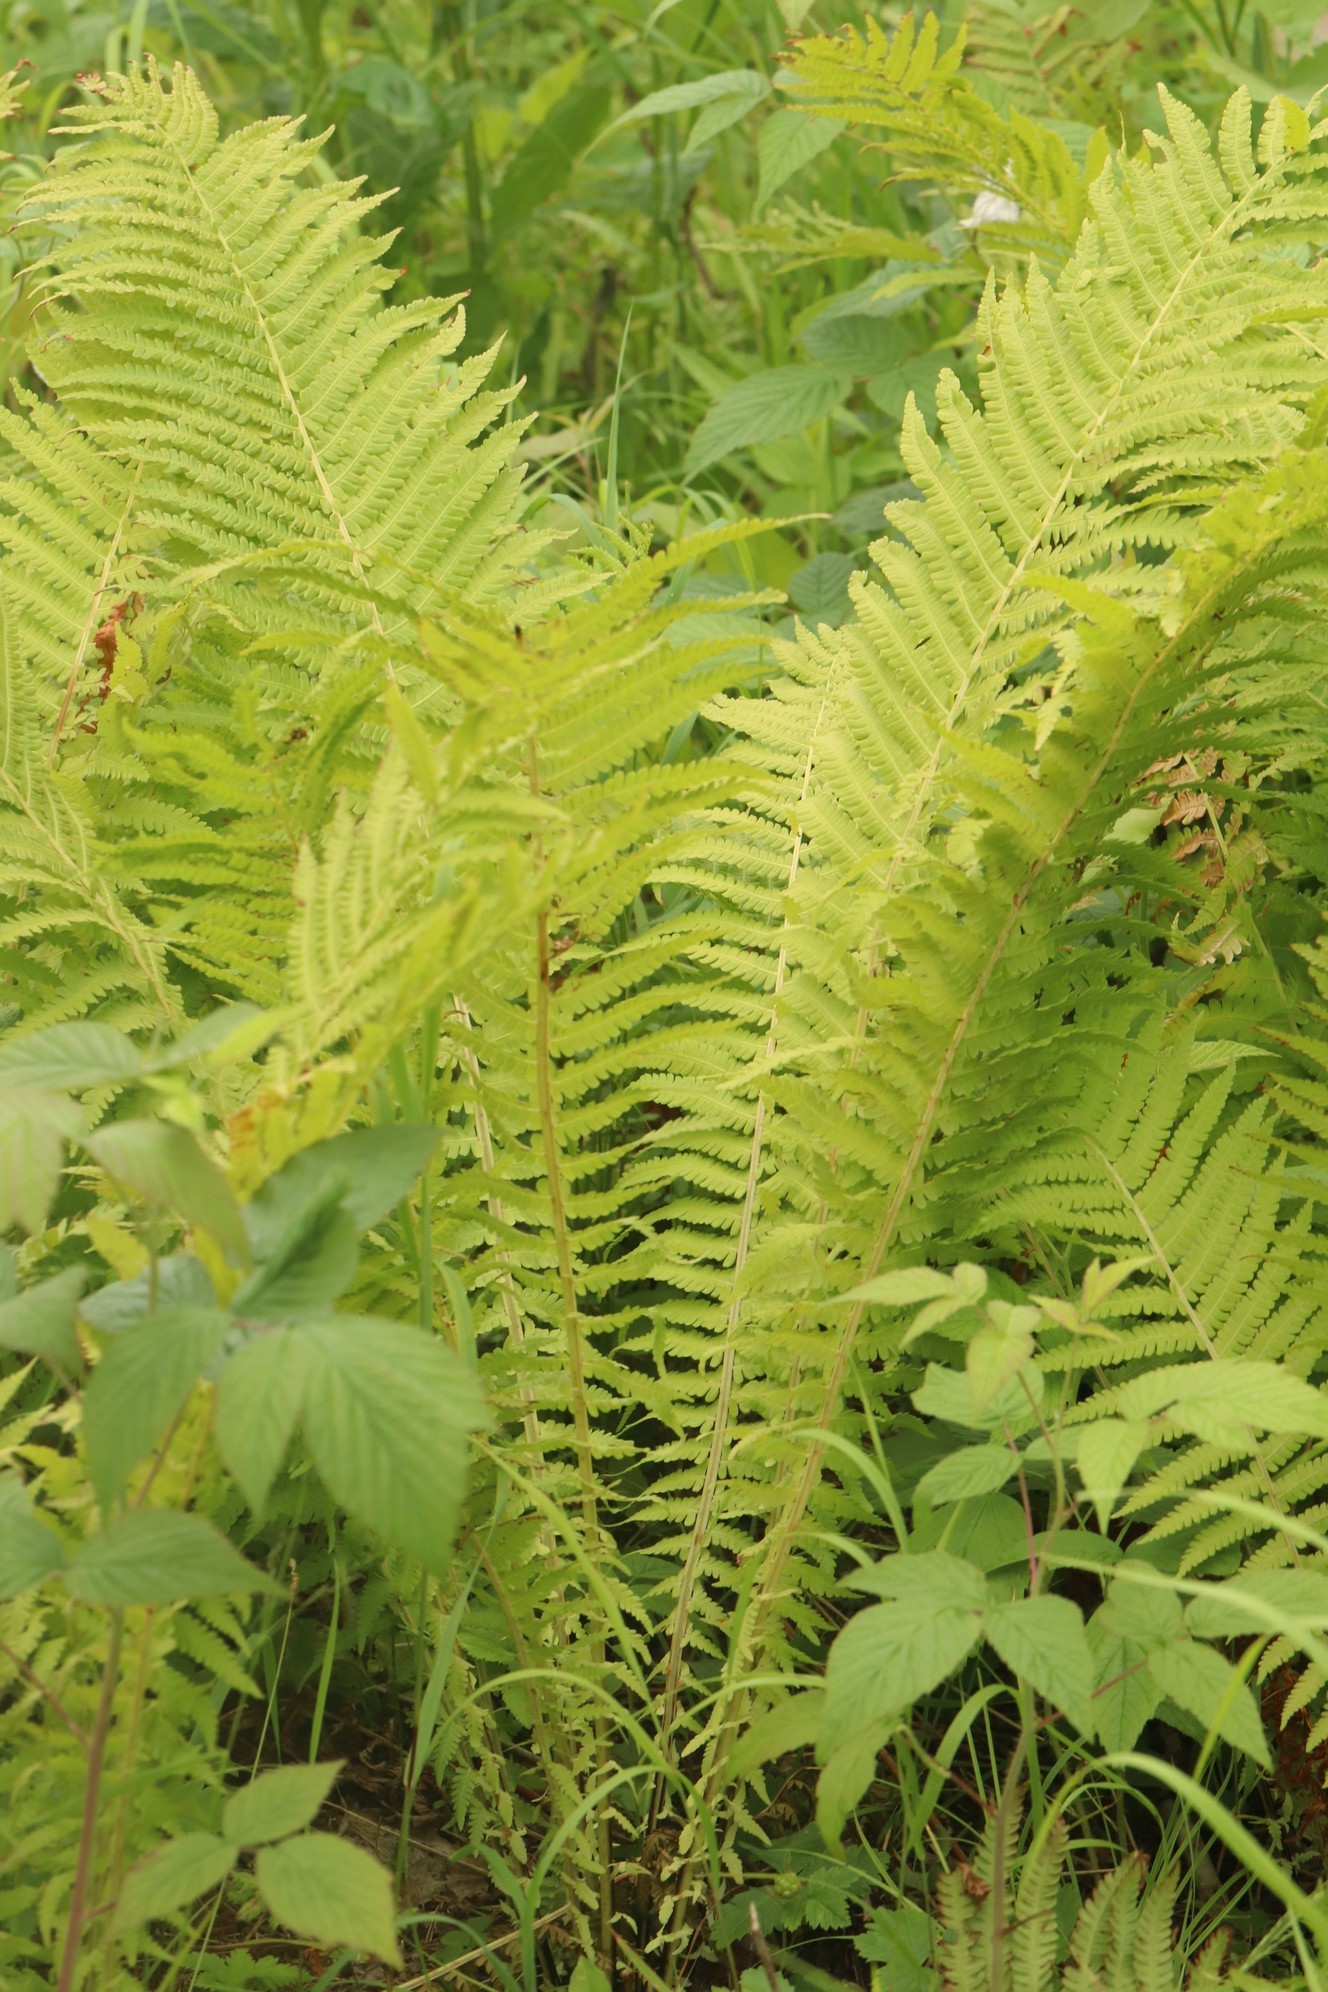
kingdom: Plantae
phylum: Tracheophyta
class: Polypodiopsida
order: Polypodiales
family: Onocleaceae
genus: Matteuccia
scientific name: Matteuccia struthiopteris
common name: Ostrich fern
